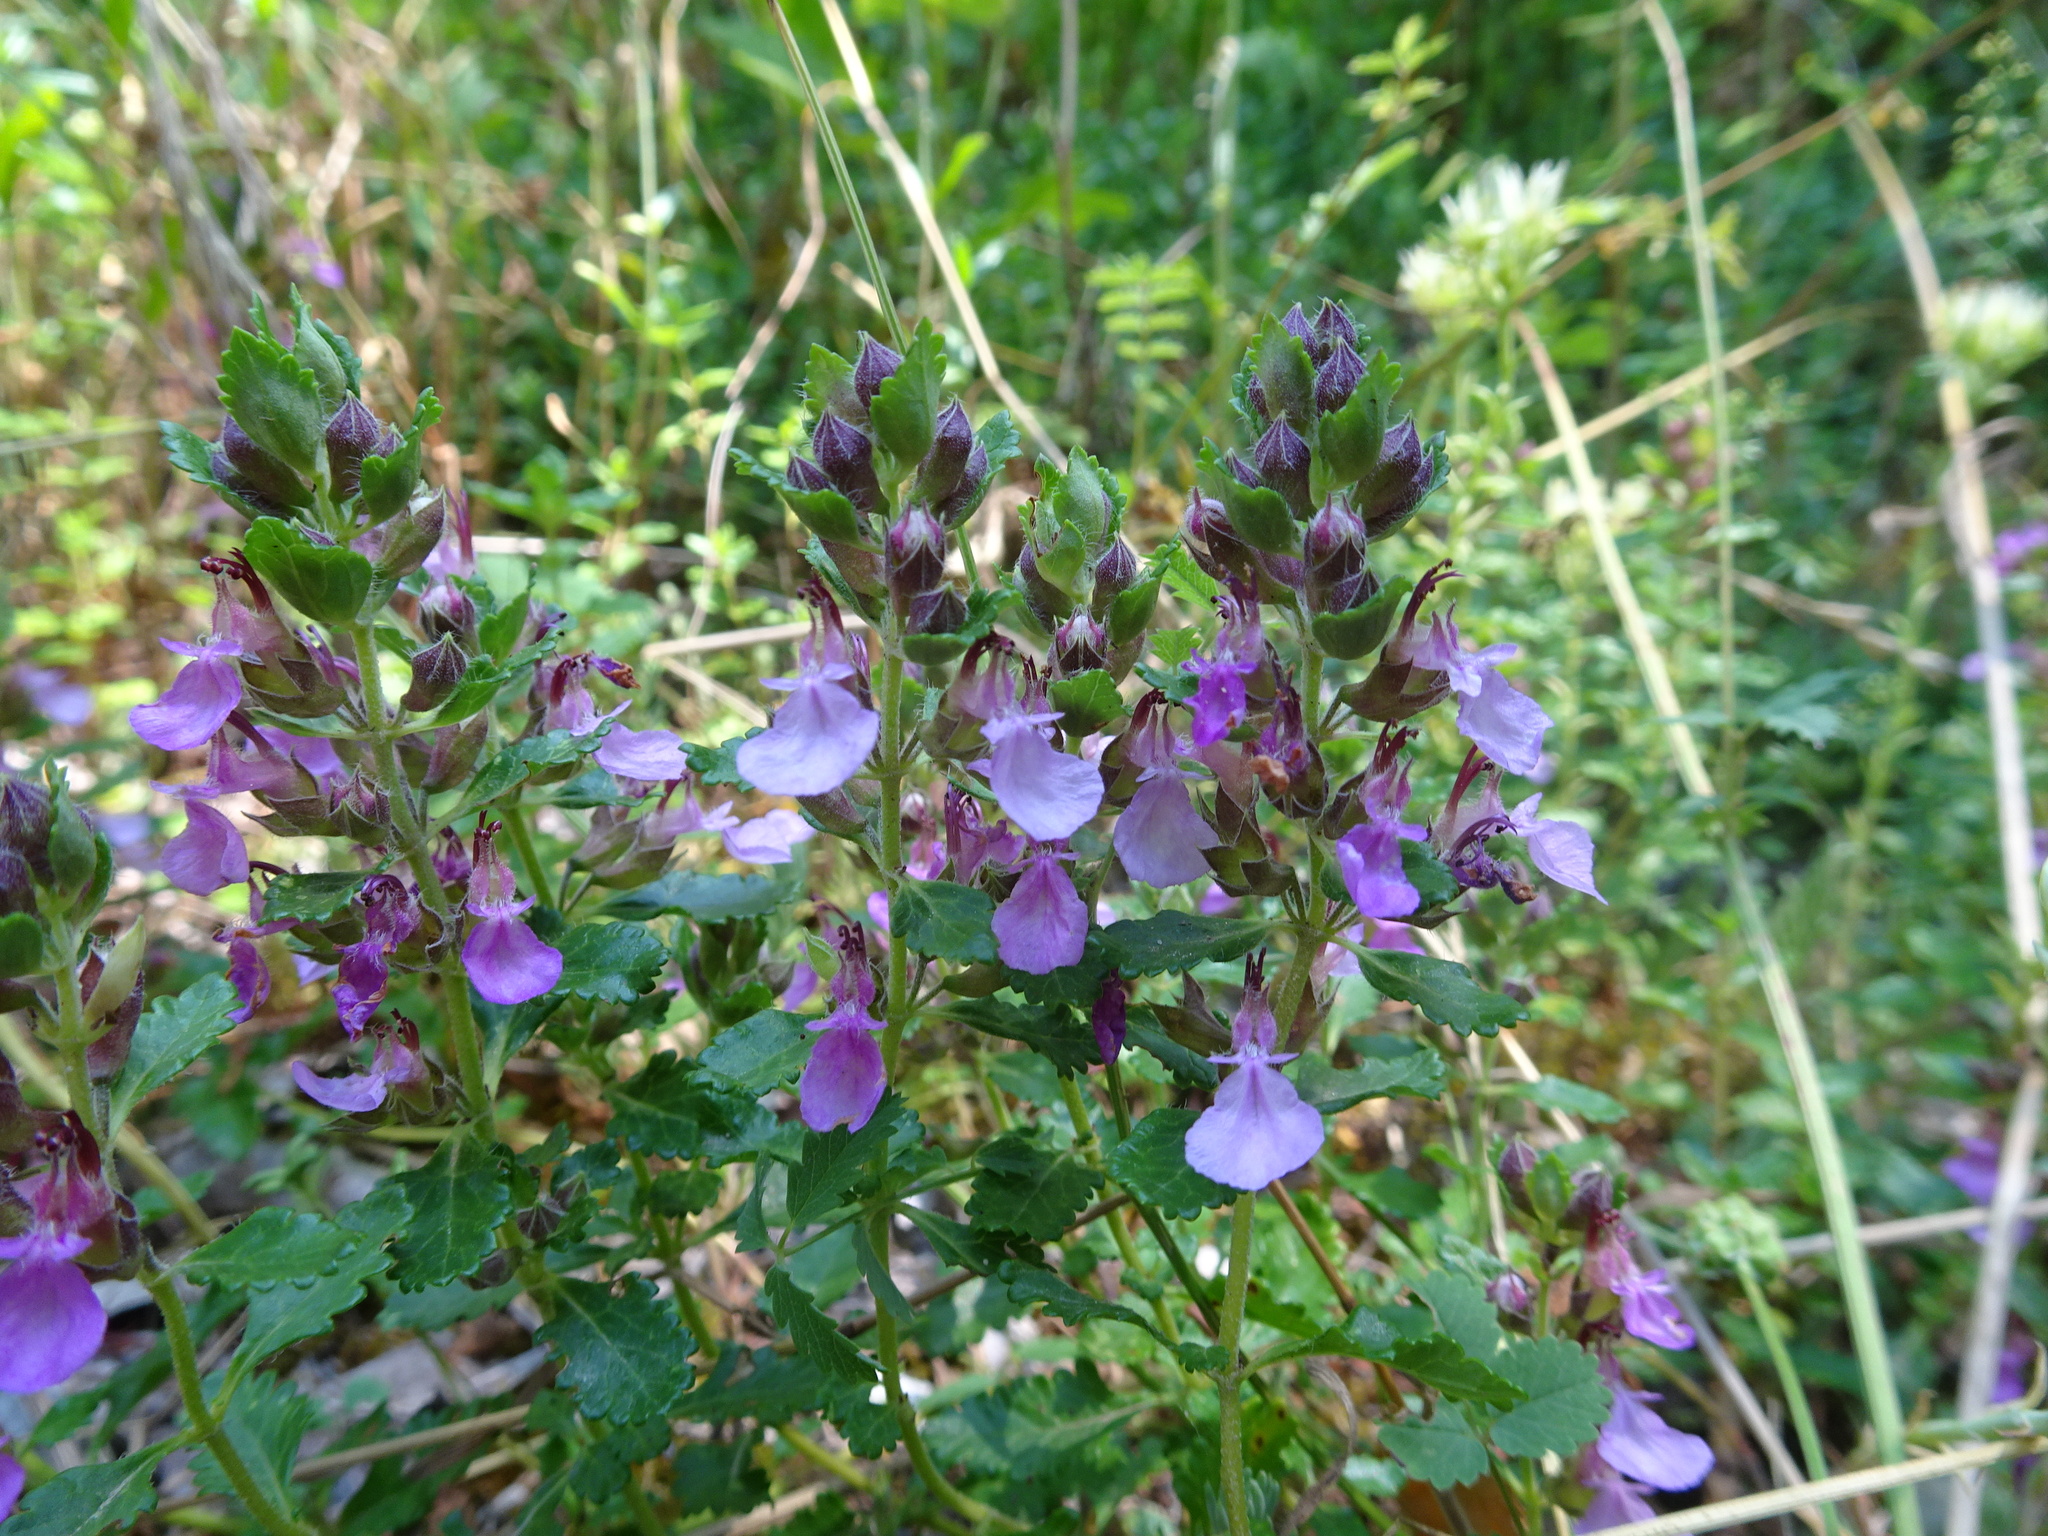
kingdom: Plantae
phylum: Tracheophyta
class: Magnoliopsida
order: Lamiales
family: Lamiaceae
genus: Teucrium
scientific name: Teucrium chamaedrys
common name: Wall germander
